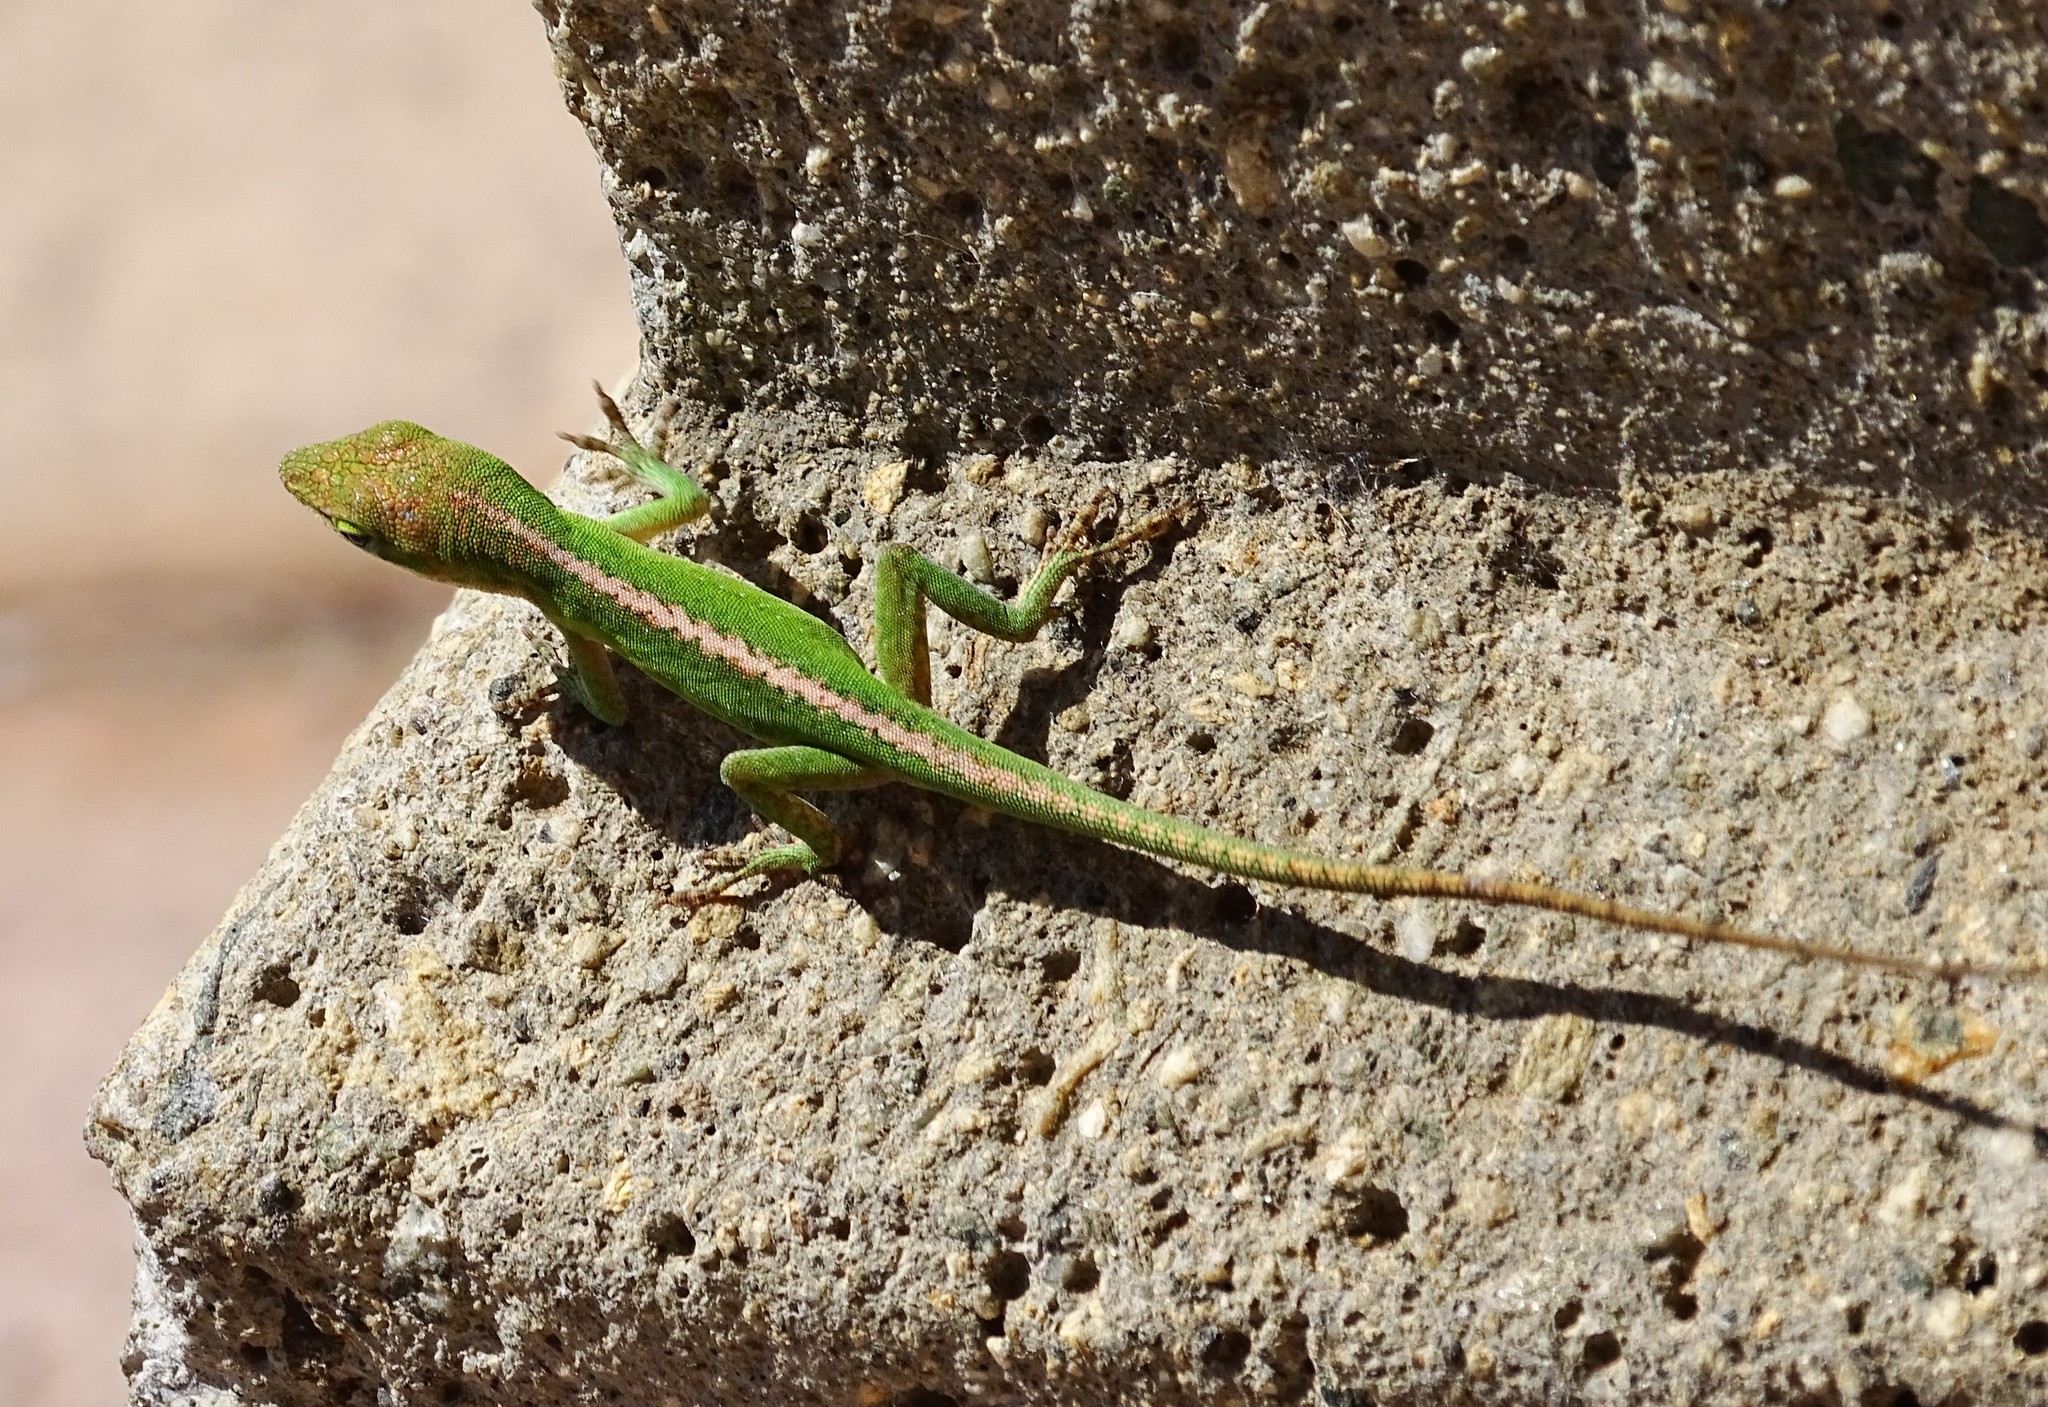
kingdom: Animalia
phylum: Chordata
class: Squamata
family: Dactyloidae
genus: Anolis
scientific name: Anolis carolinensis
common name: Green anole
